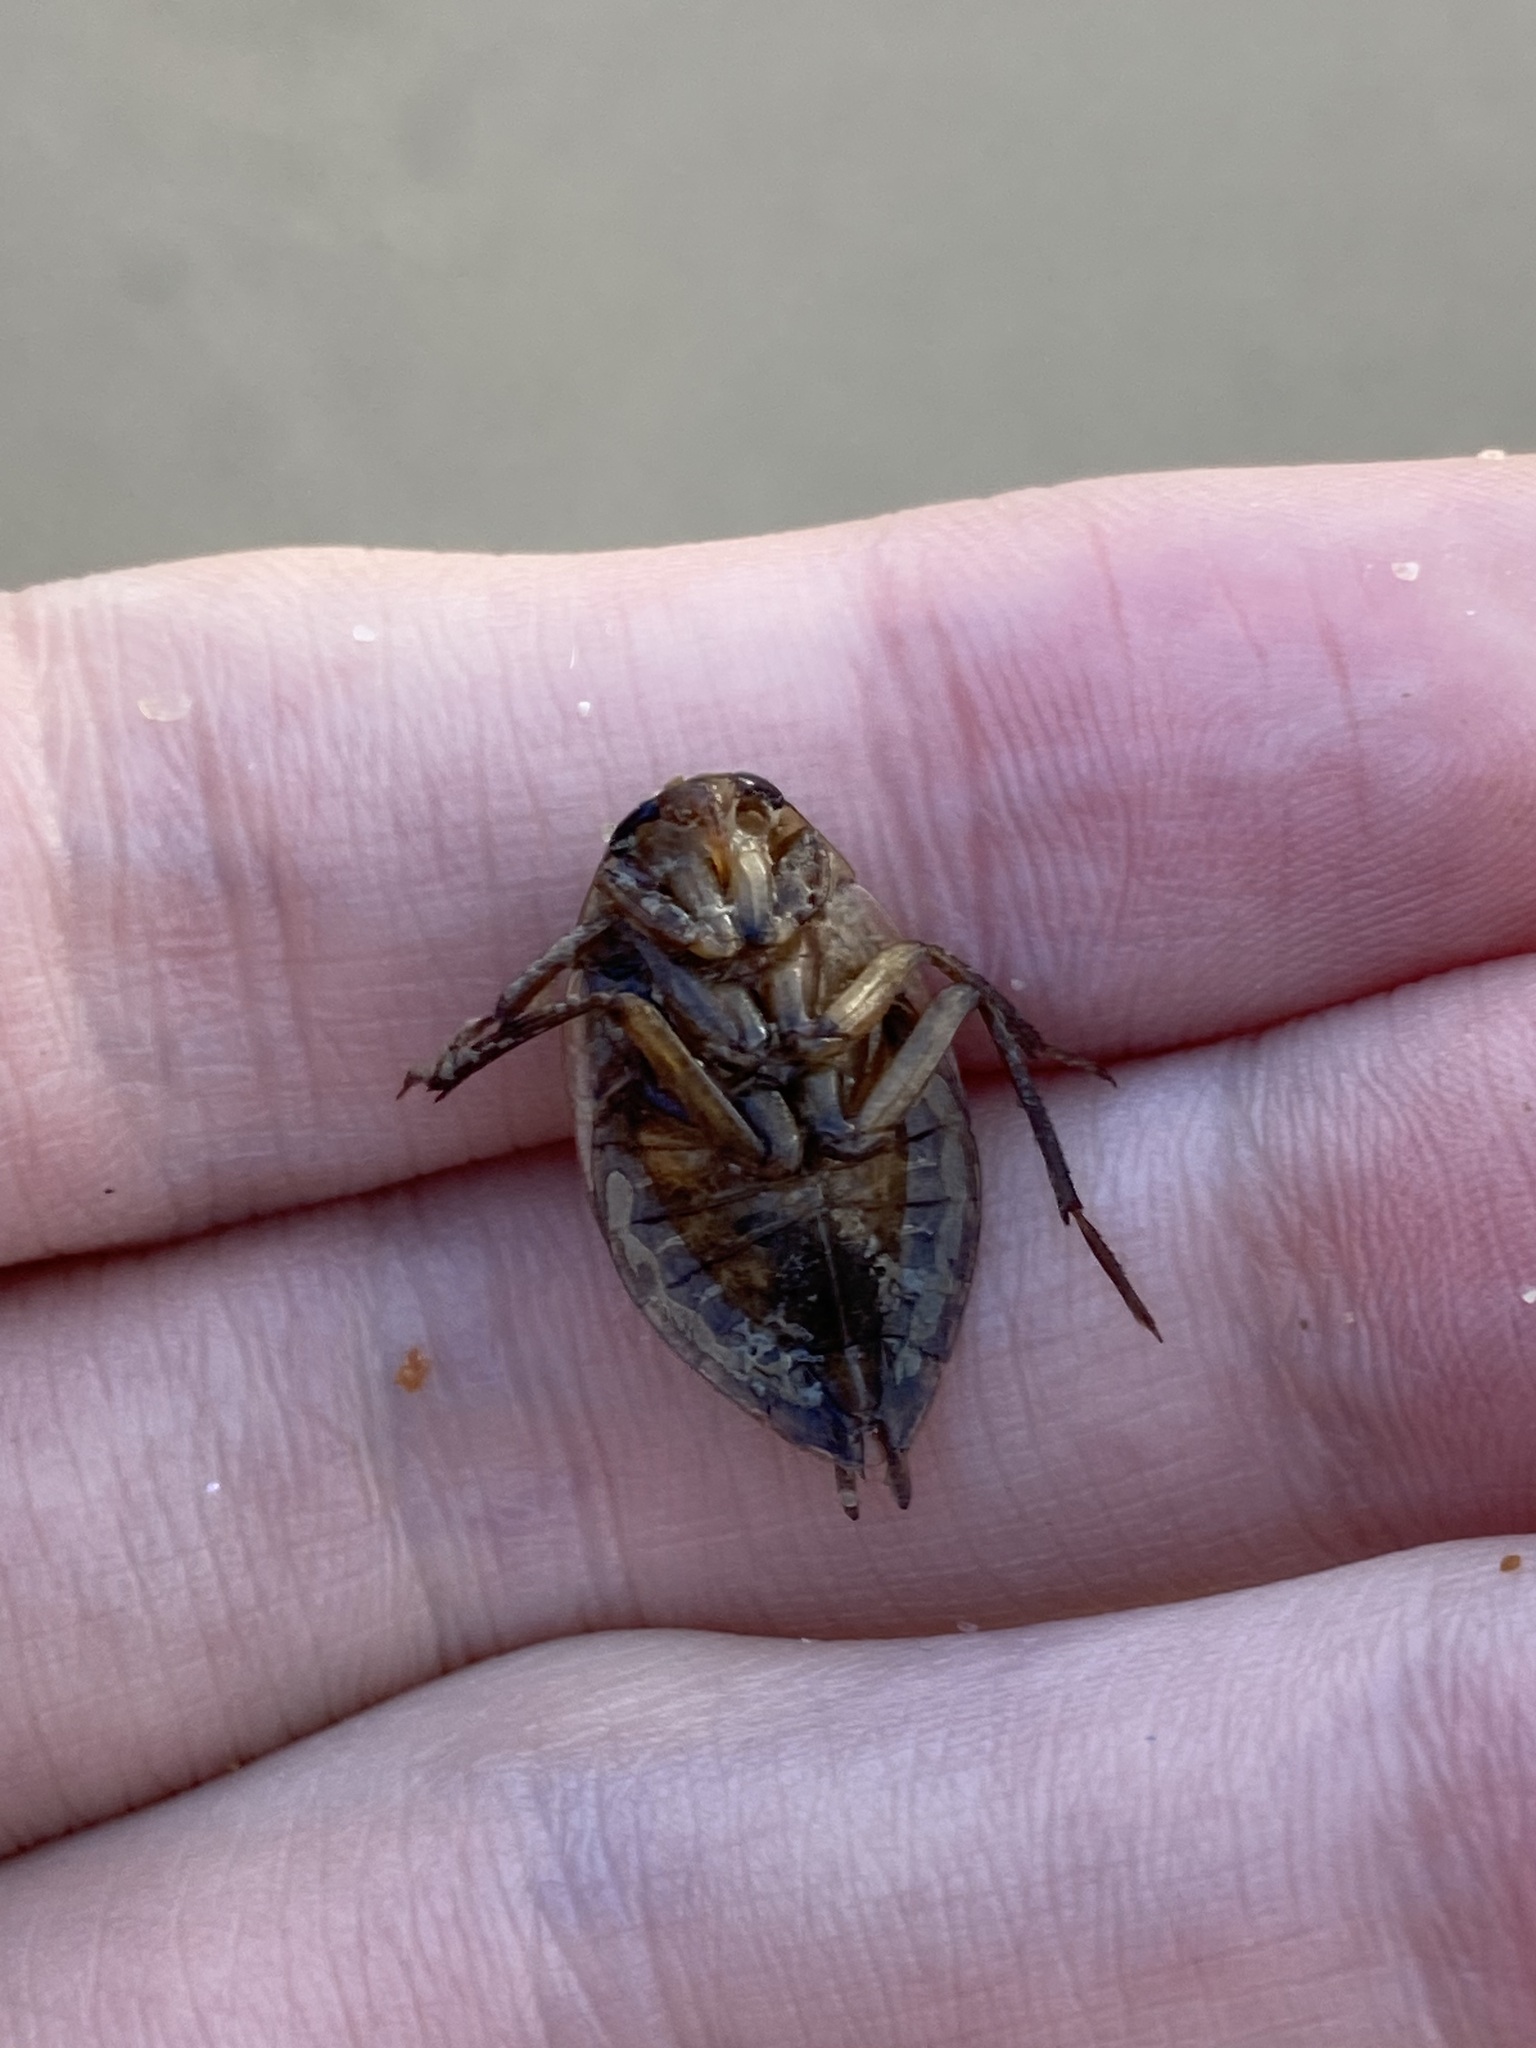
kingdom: Animalia
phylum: Arthropoda
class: Insecta
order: Hemiptera
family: Belostomatidae
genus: Diplonychus
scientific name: Diplonychus eques
